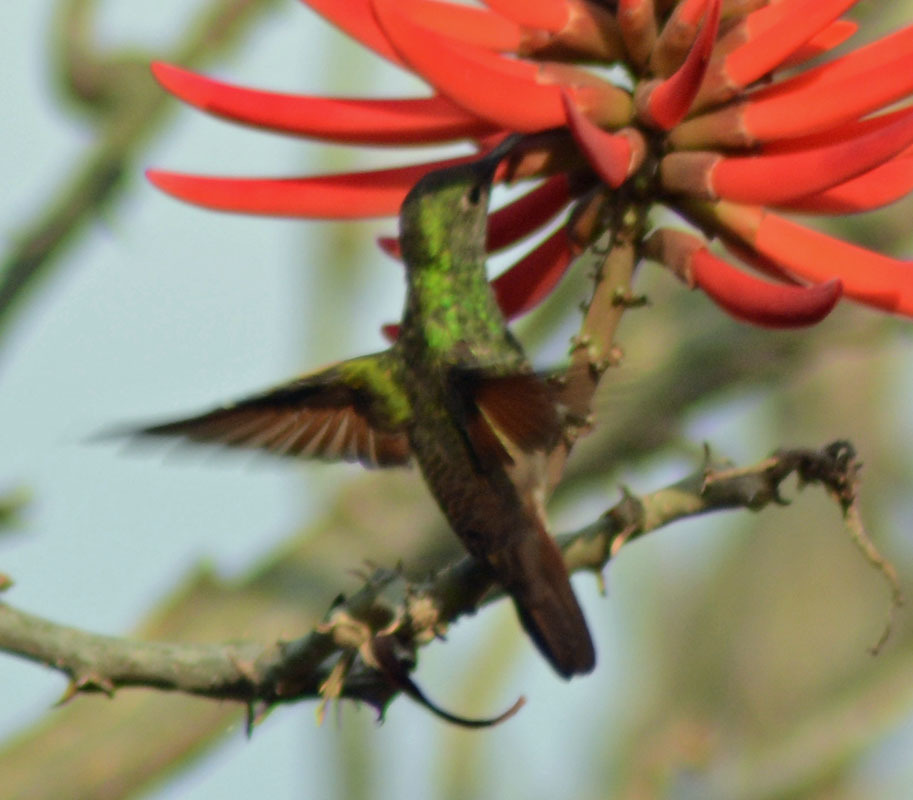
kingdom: Animalia
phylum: Chordata
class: Aves
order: Apodiformes
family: Trochilidae
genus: Saucerottia
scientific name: Saucerottia beryllina
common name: Berylline hummingbird
